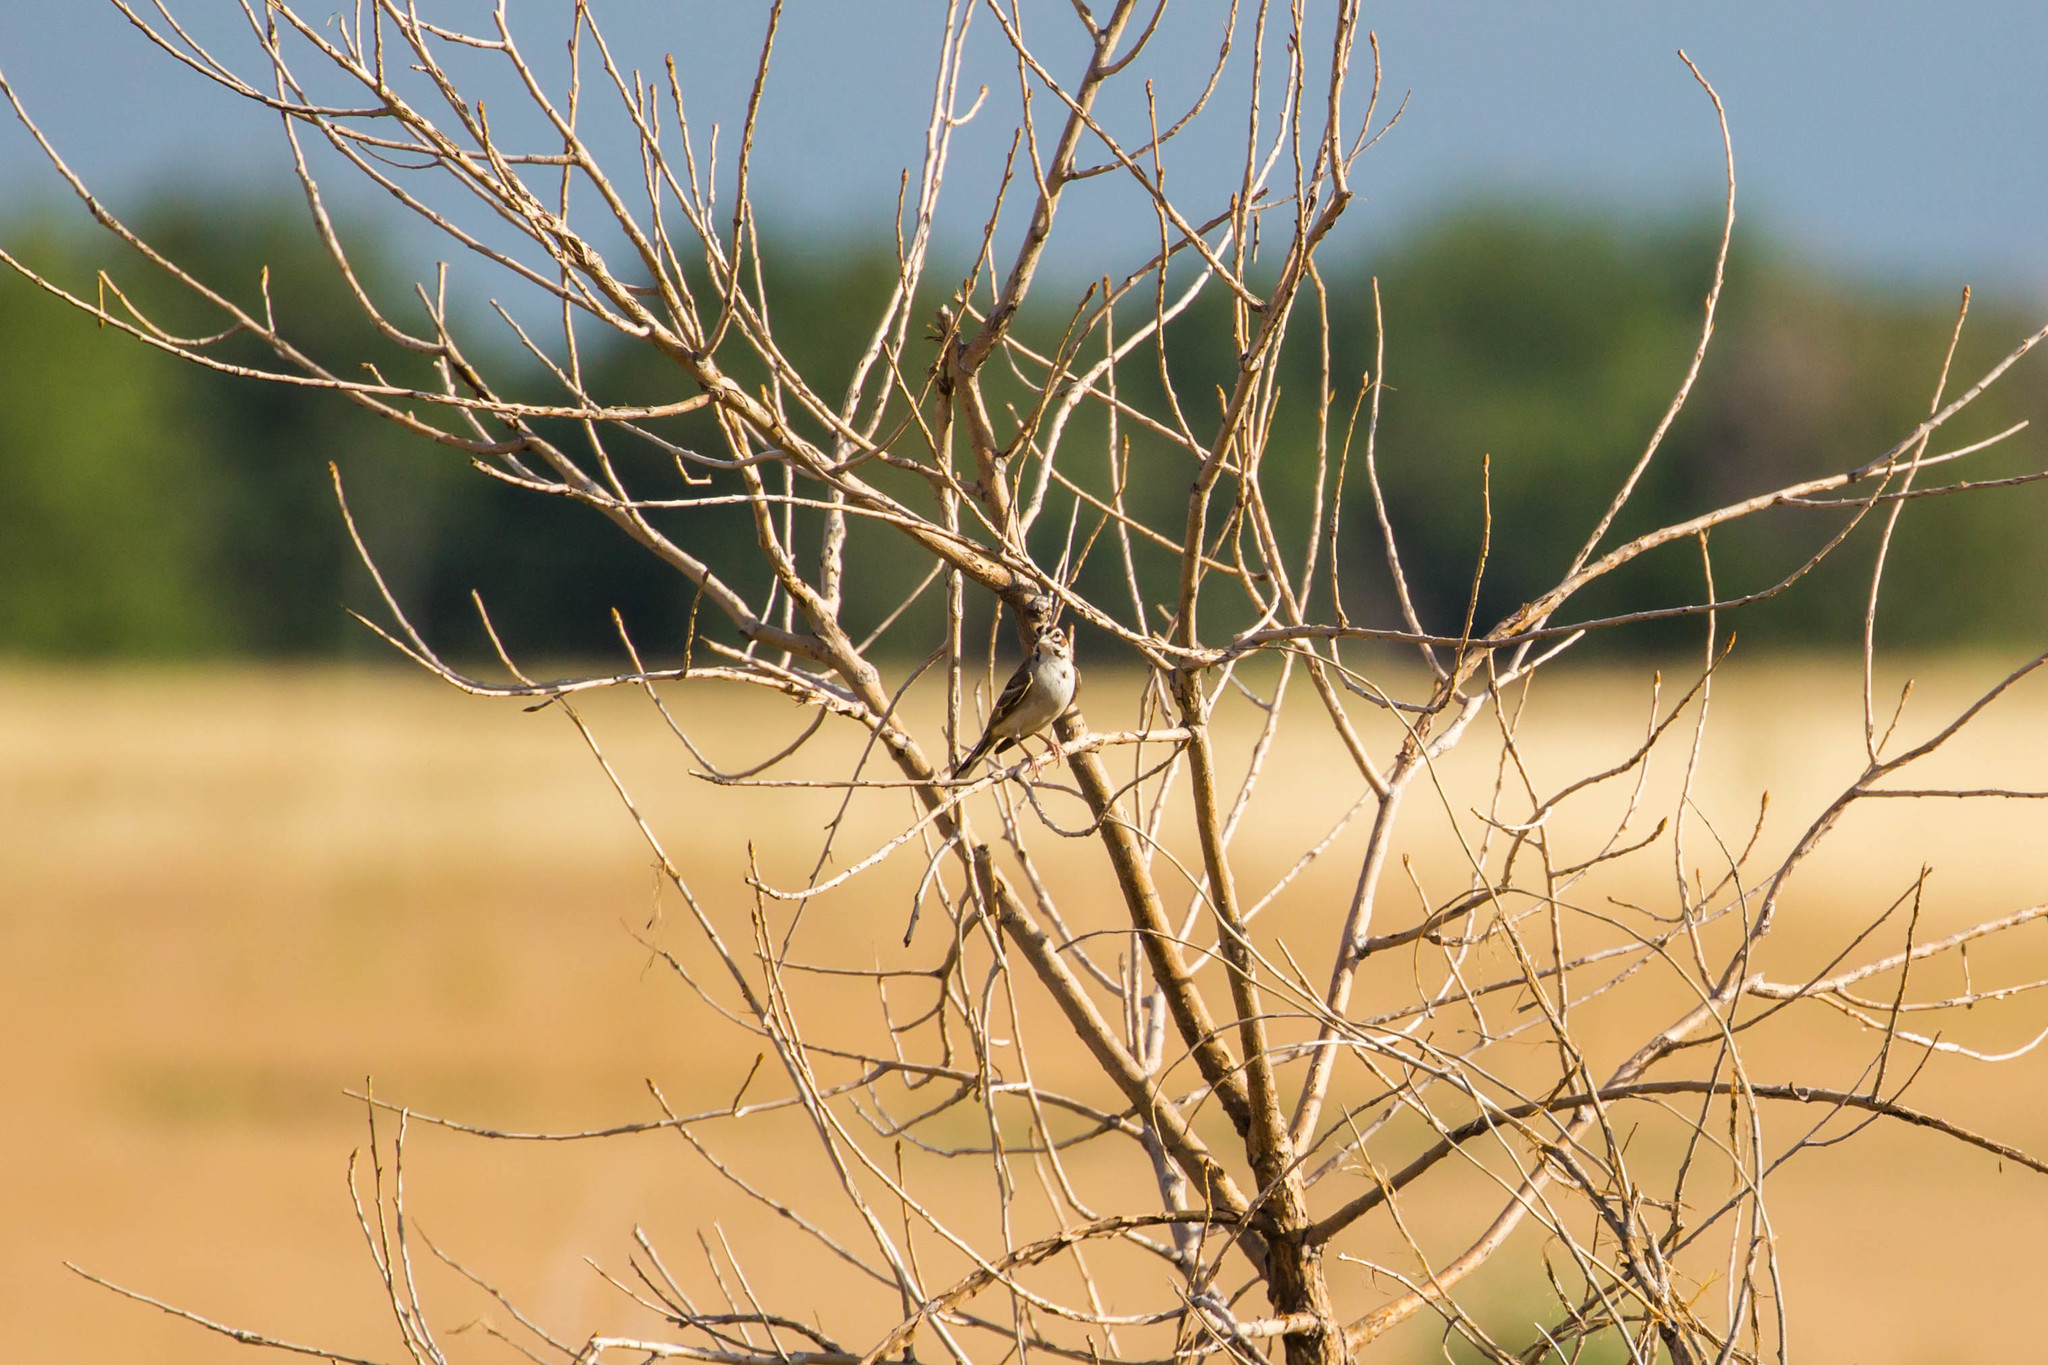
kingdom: Animalia
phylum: Chordata
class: Aves
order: Passeriformes
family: Passerellidae
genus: Chondestes
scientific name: Chondestes grammacus
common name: Lark sparrow
